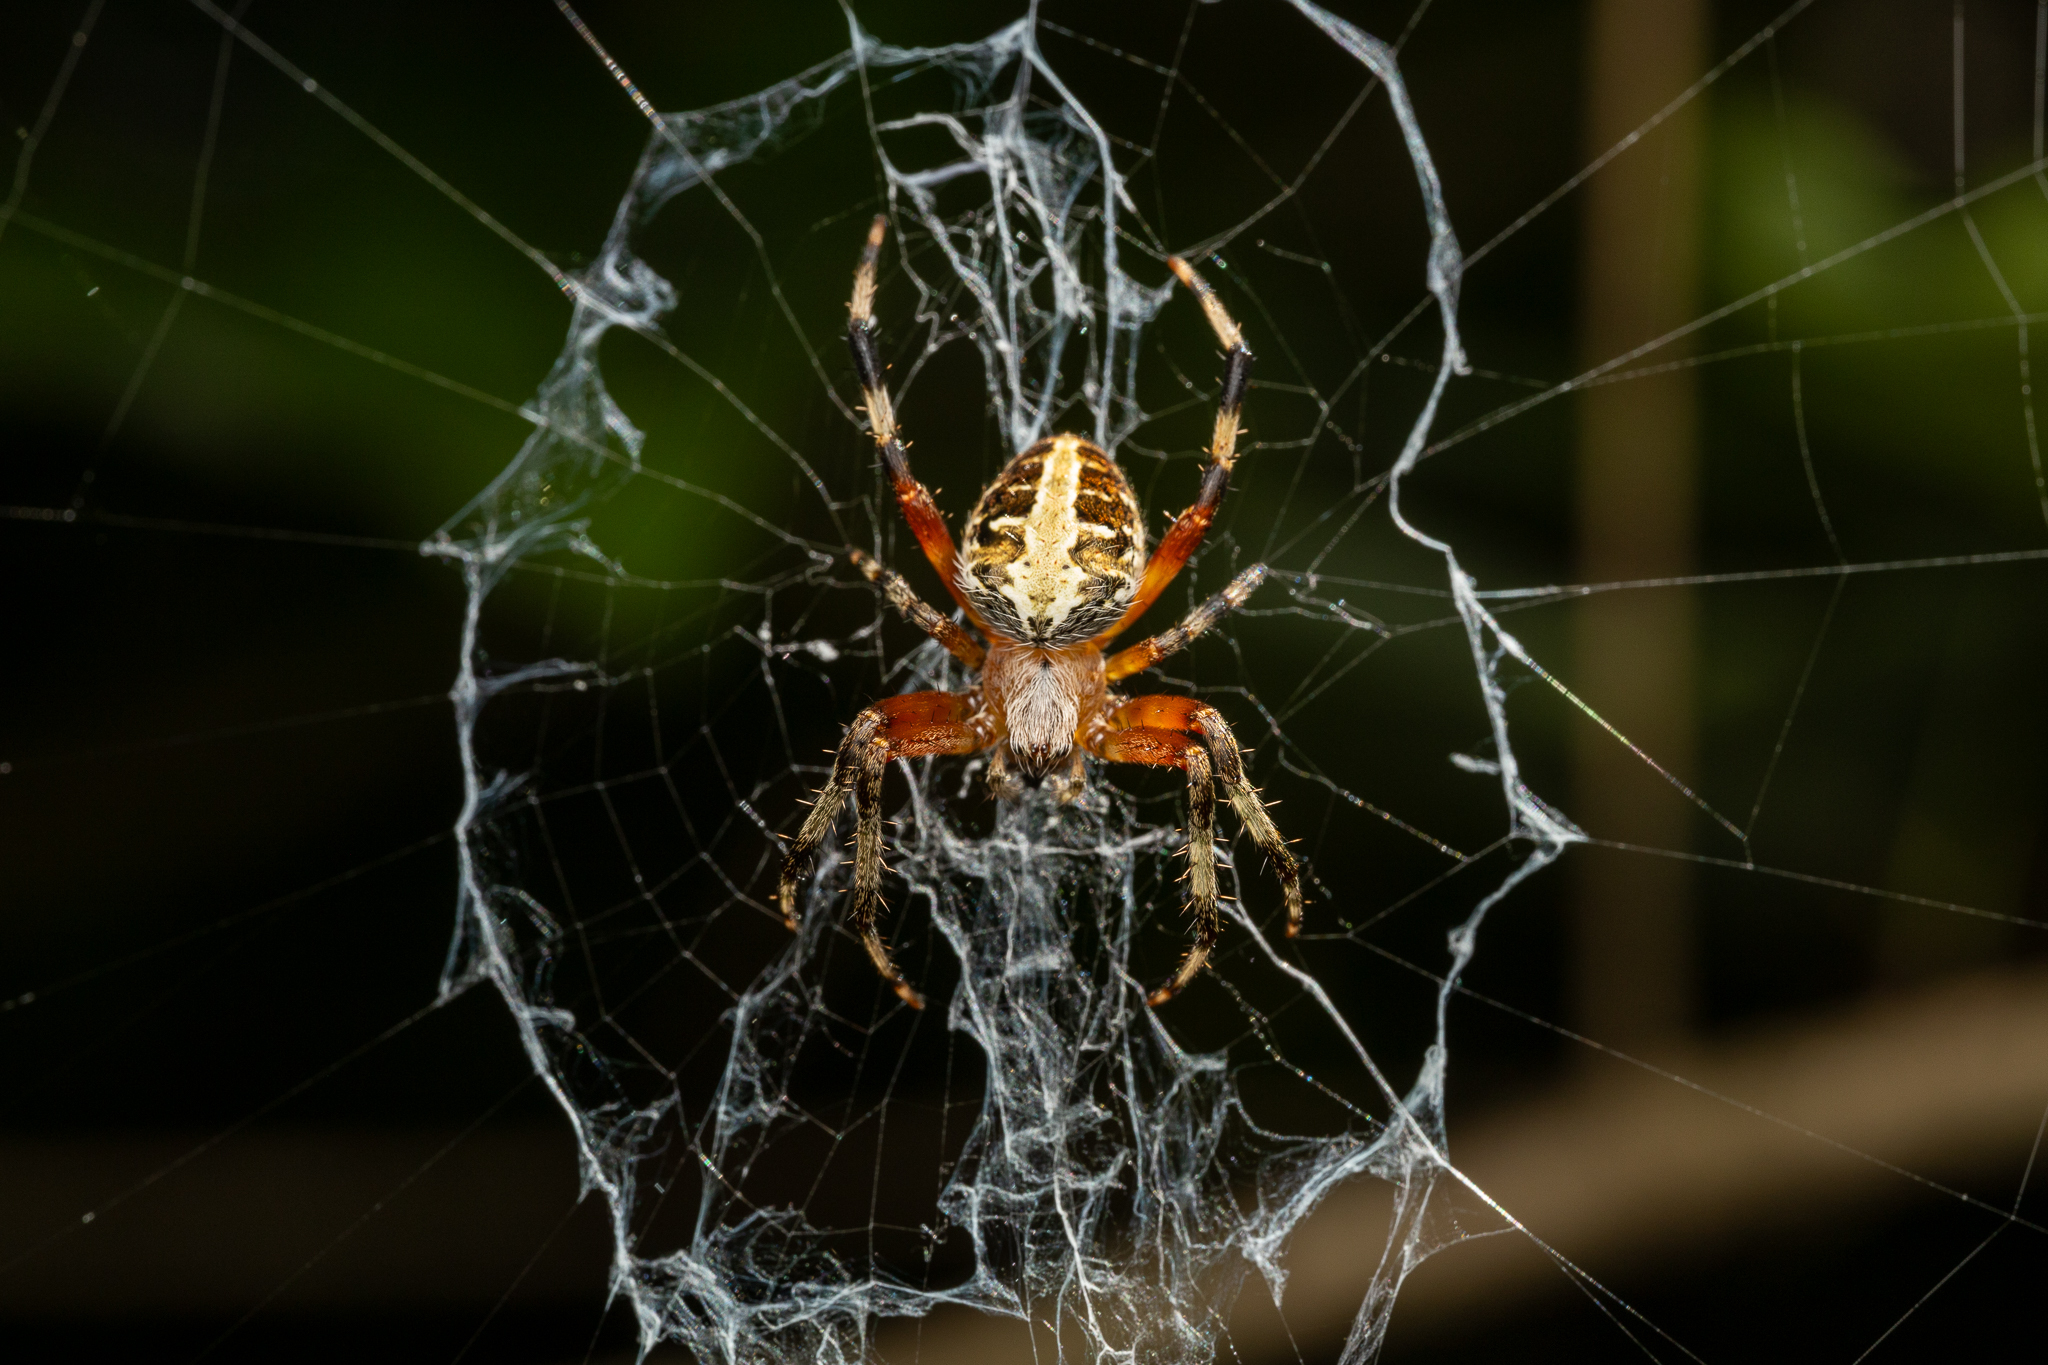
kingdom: Animalia
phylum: Arthropoda
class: Arachnida
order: Araneae
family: Araneidae
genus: Neoscona
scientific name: Neoscona domiciliorum
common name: Red-femured spotted orbweaver
